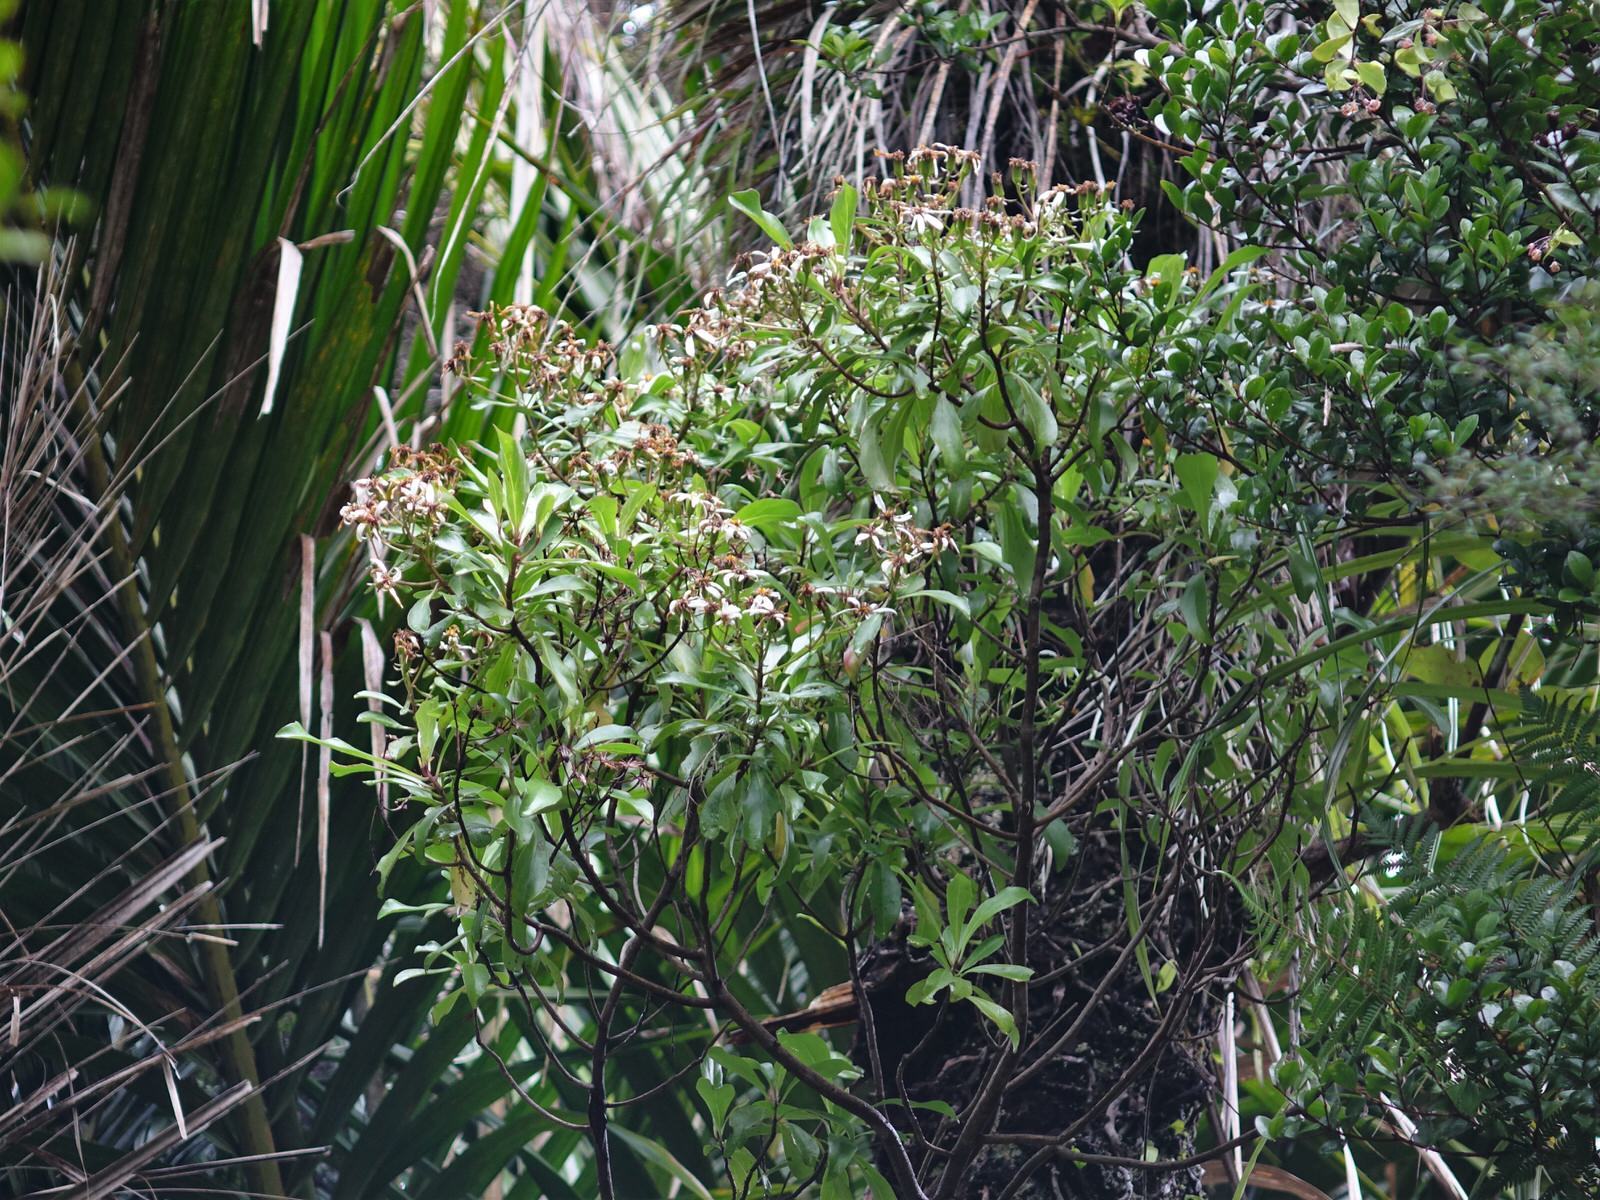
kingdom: Plantae
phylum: Tracheophyta
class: Magnoliopsida
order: Asterales
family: Asteraceae
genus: Brachyglottis
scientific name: Brachyglottis kirkii
